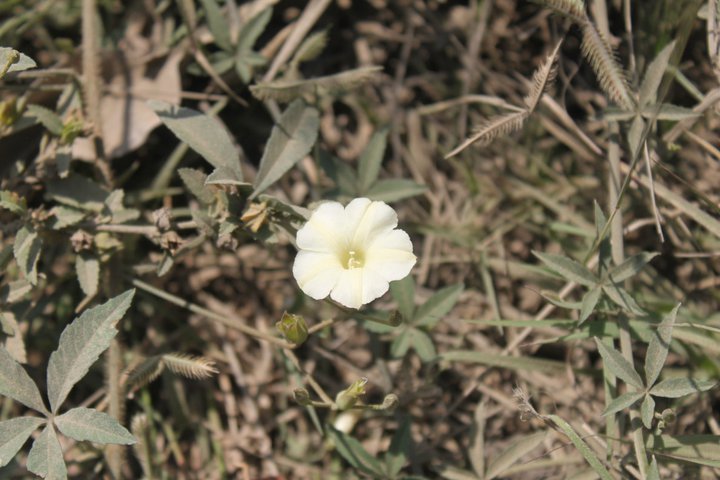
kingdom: Plantae
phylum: Tracheophyta
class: Magnoliopsida
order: Solanales
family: Convolvulaceae
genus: Distimake
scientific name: Distimake quinquefolius
